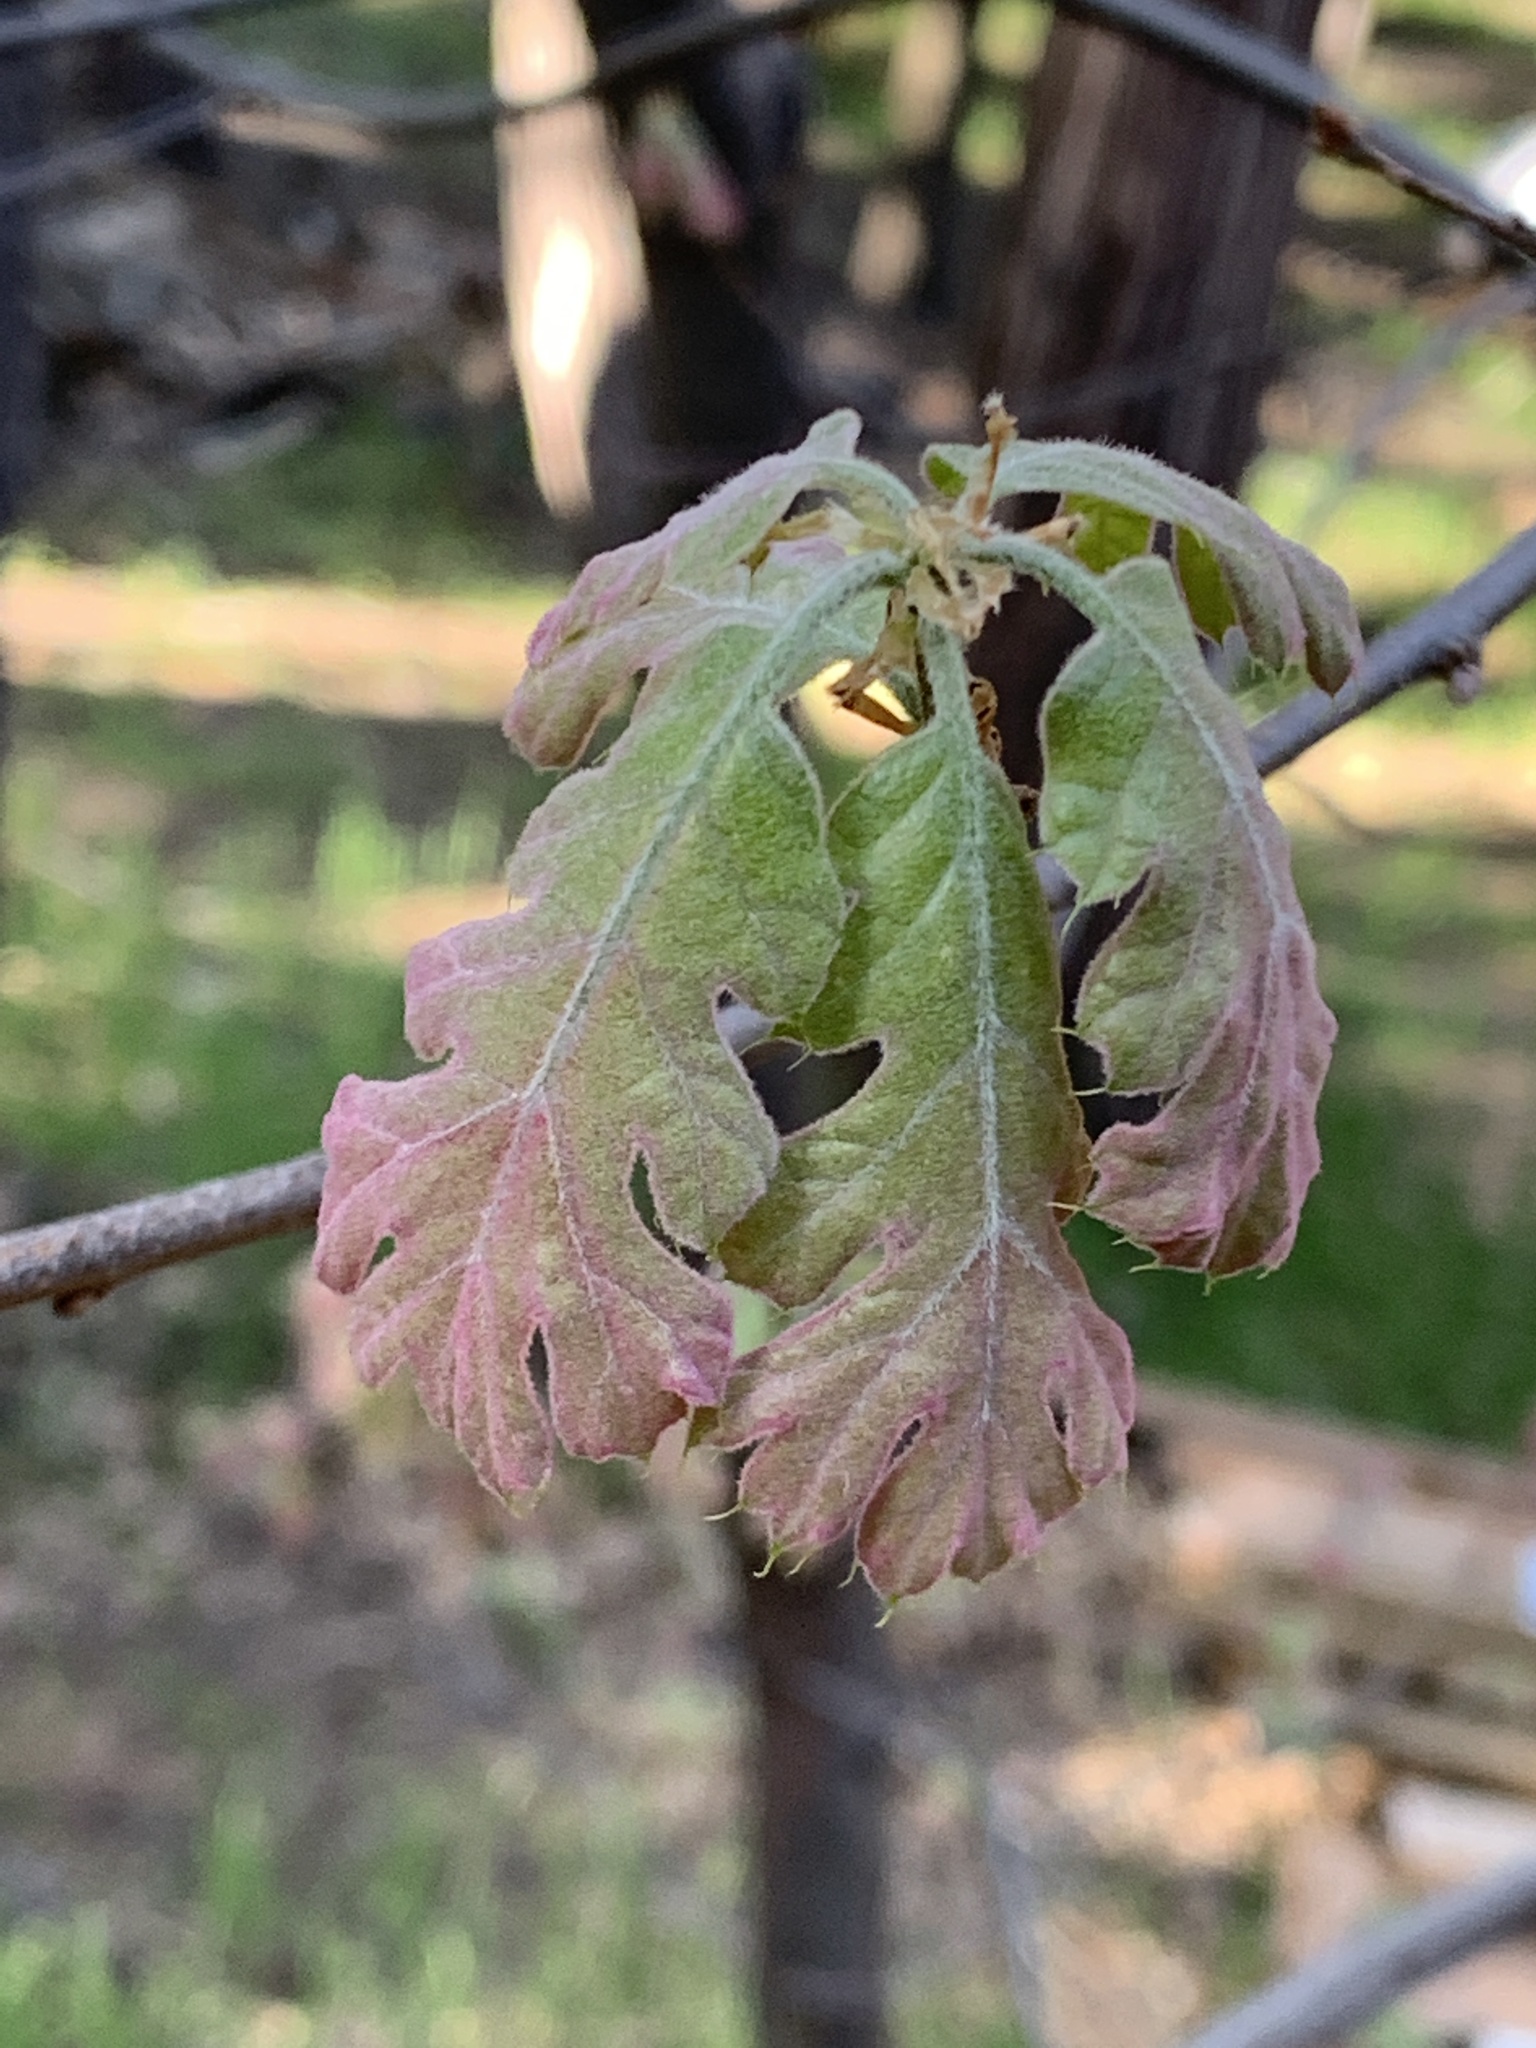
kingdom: Plantae
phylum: Tracheophyta
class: Magnoliopsida
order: Fagales
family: Fagaceae
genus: Quercus
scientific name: Quercus kelloggii
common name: California black oak
